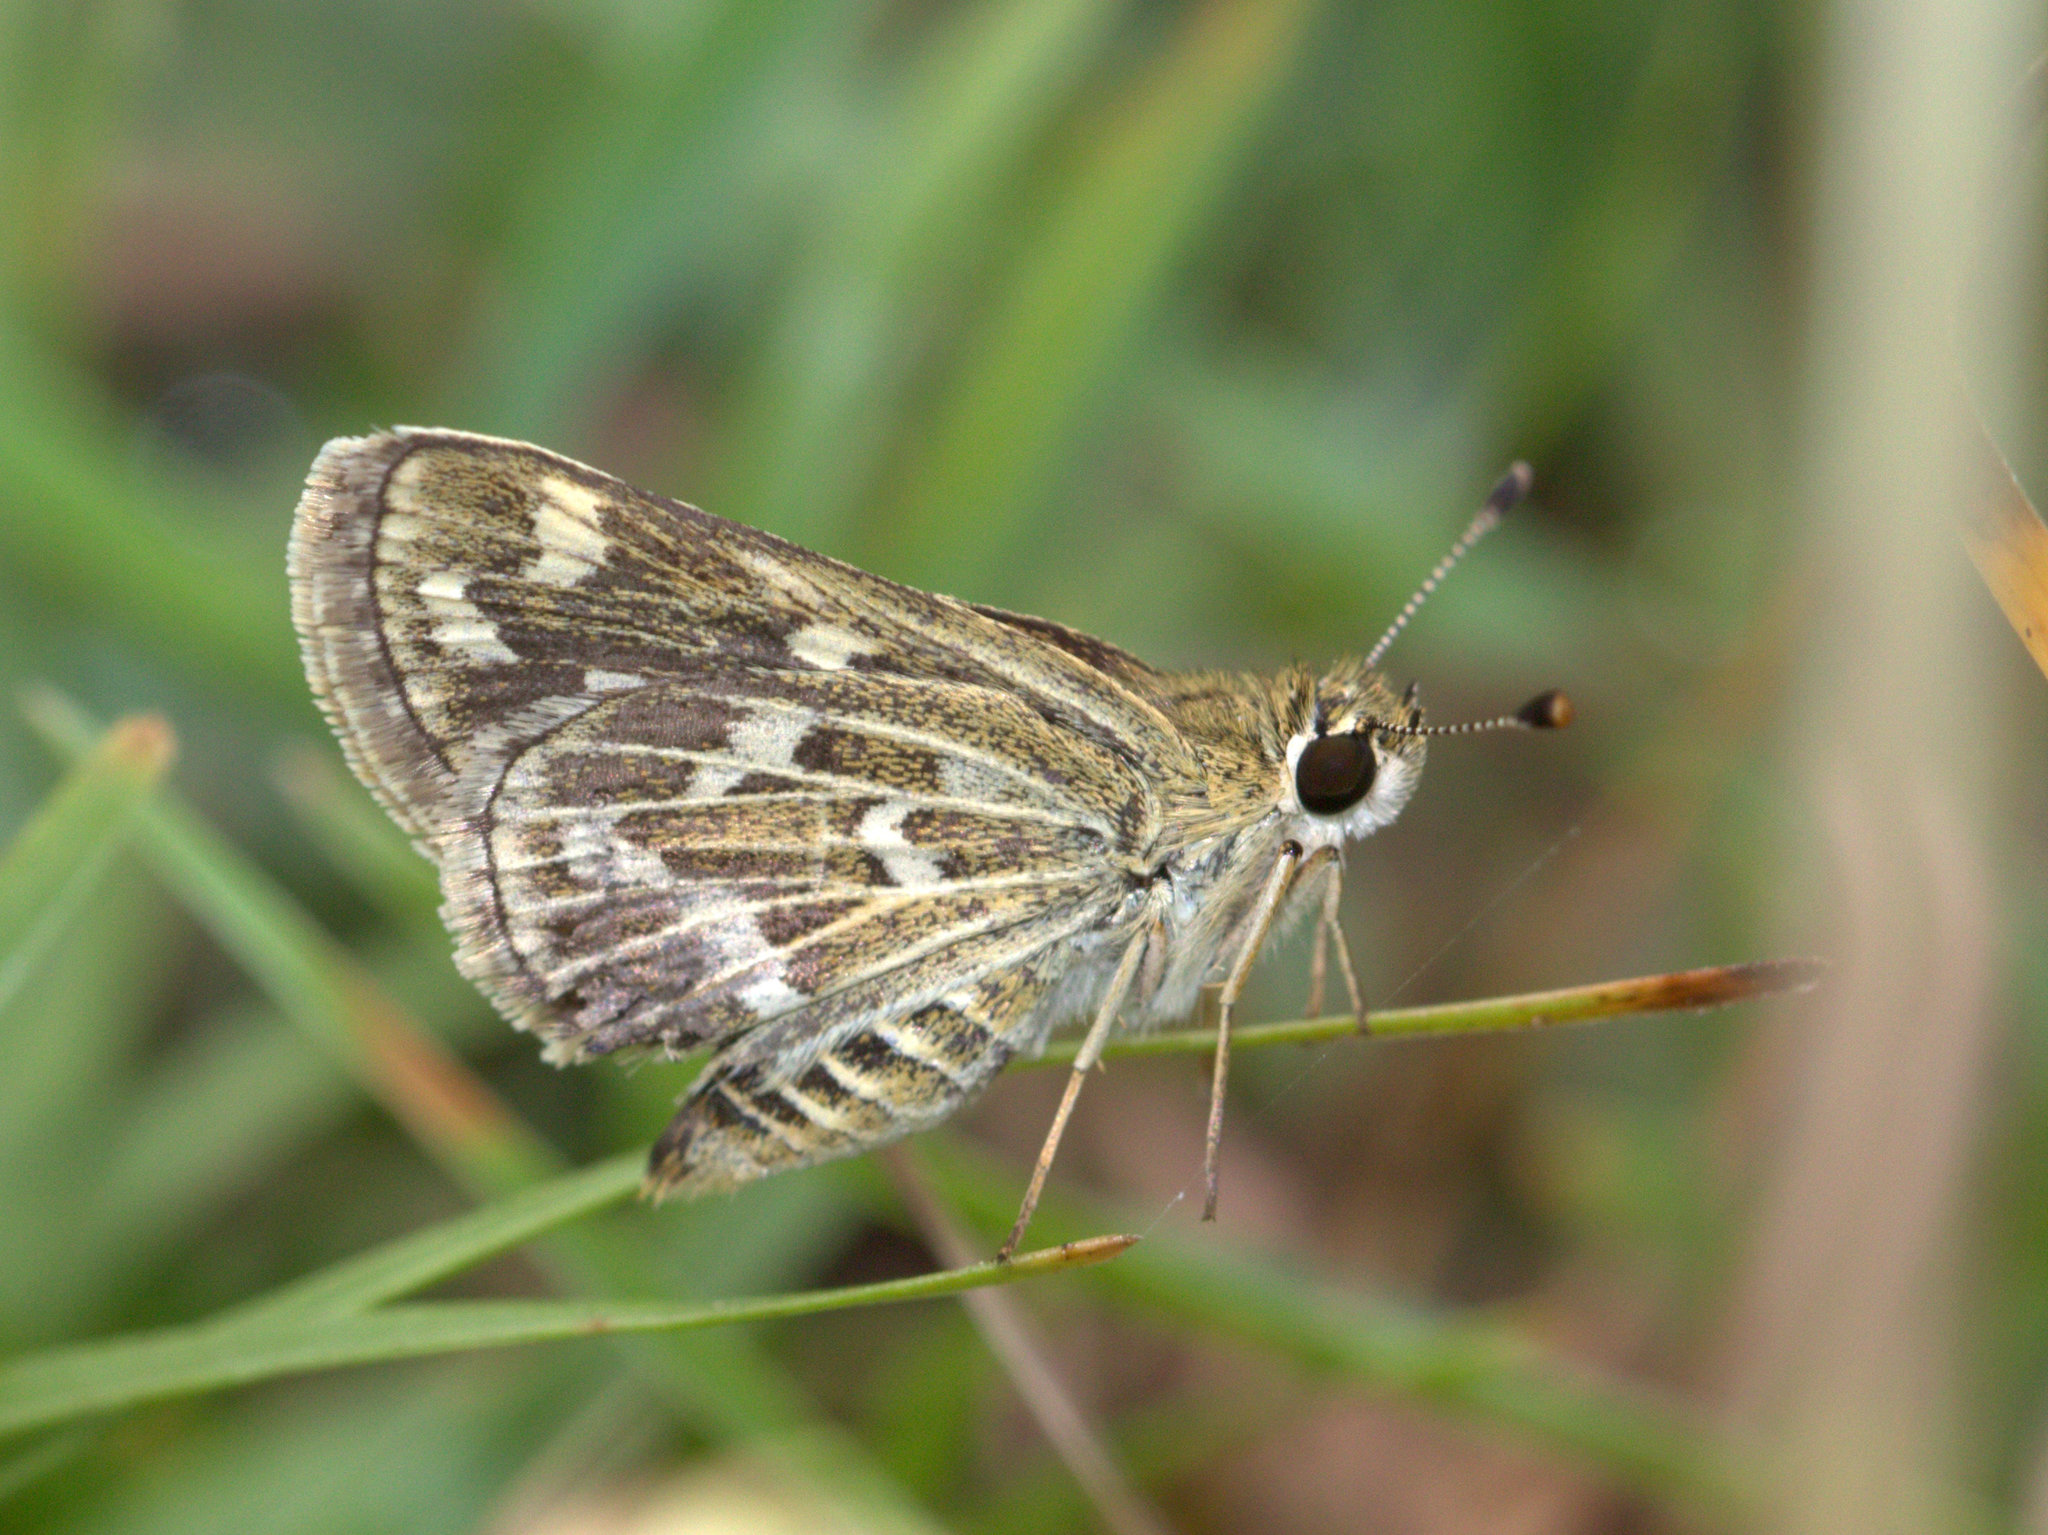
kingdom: Animalia
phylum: Arthropoda
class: Insecta
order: Lepidoptera
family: Hesperiidae
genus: Taractrocera
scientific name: Taractrocera maevius
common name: Common grass-dart
